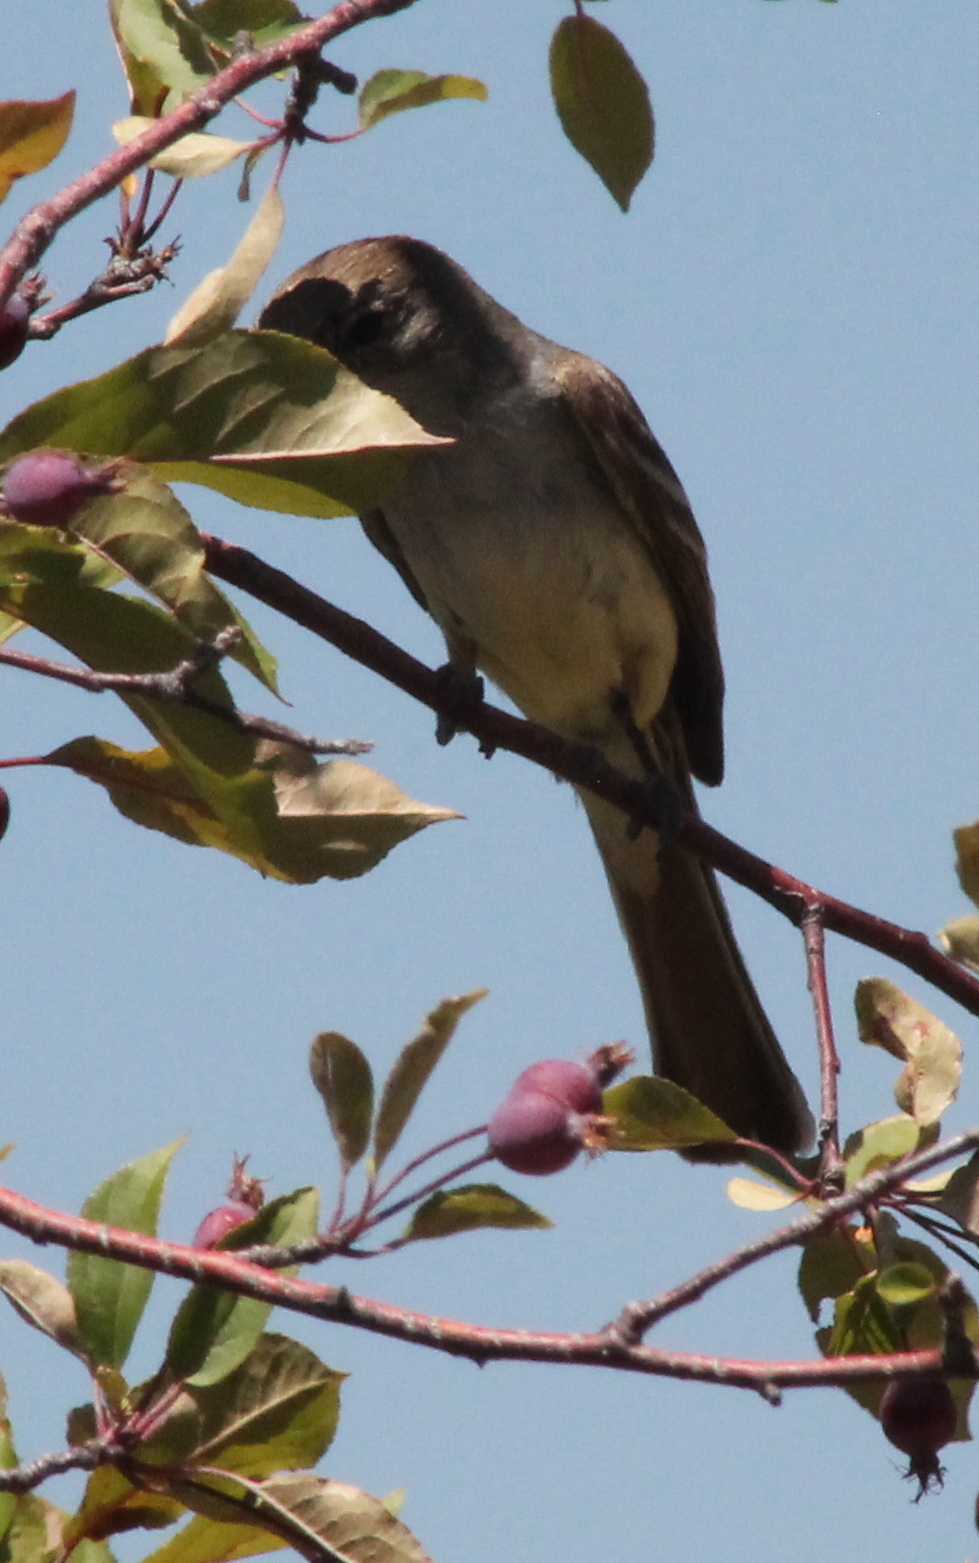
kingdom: Animalia
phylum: Chordata
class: Aves
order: Passeriformes
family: Tyrannidae
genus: Myiarchus
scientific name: Myiarchus cinerascens
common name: Ash-throated flycatcher
